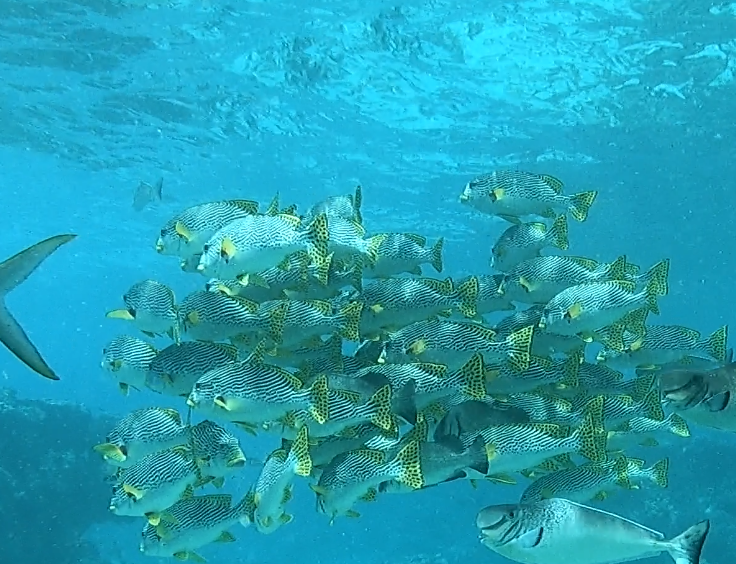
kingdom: Animalia
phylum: Chordata
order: Perciformes
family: Haemulidae
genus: Plectorhinchus
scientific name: Plectorhinchus lineatus
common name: Goldman's sweetlips
